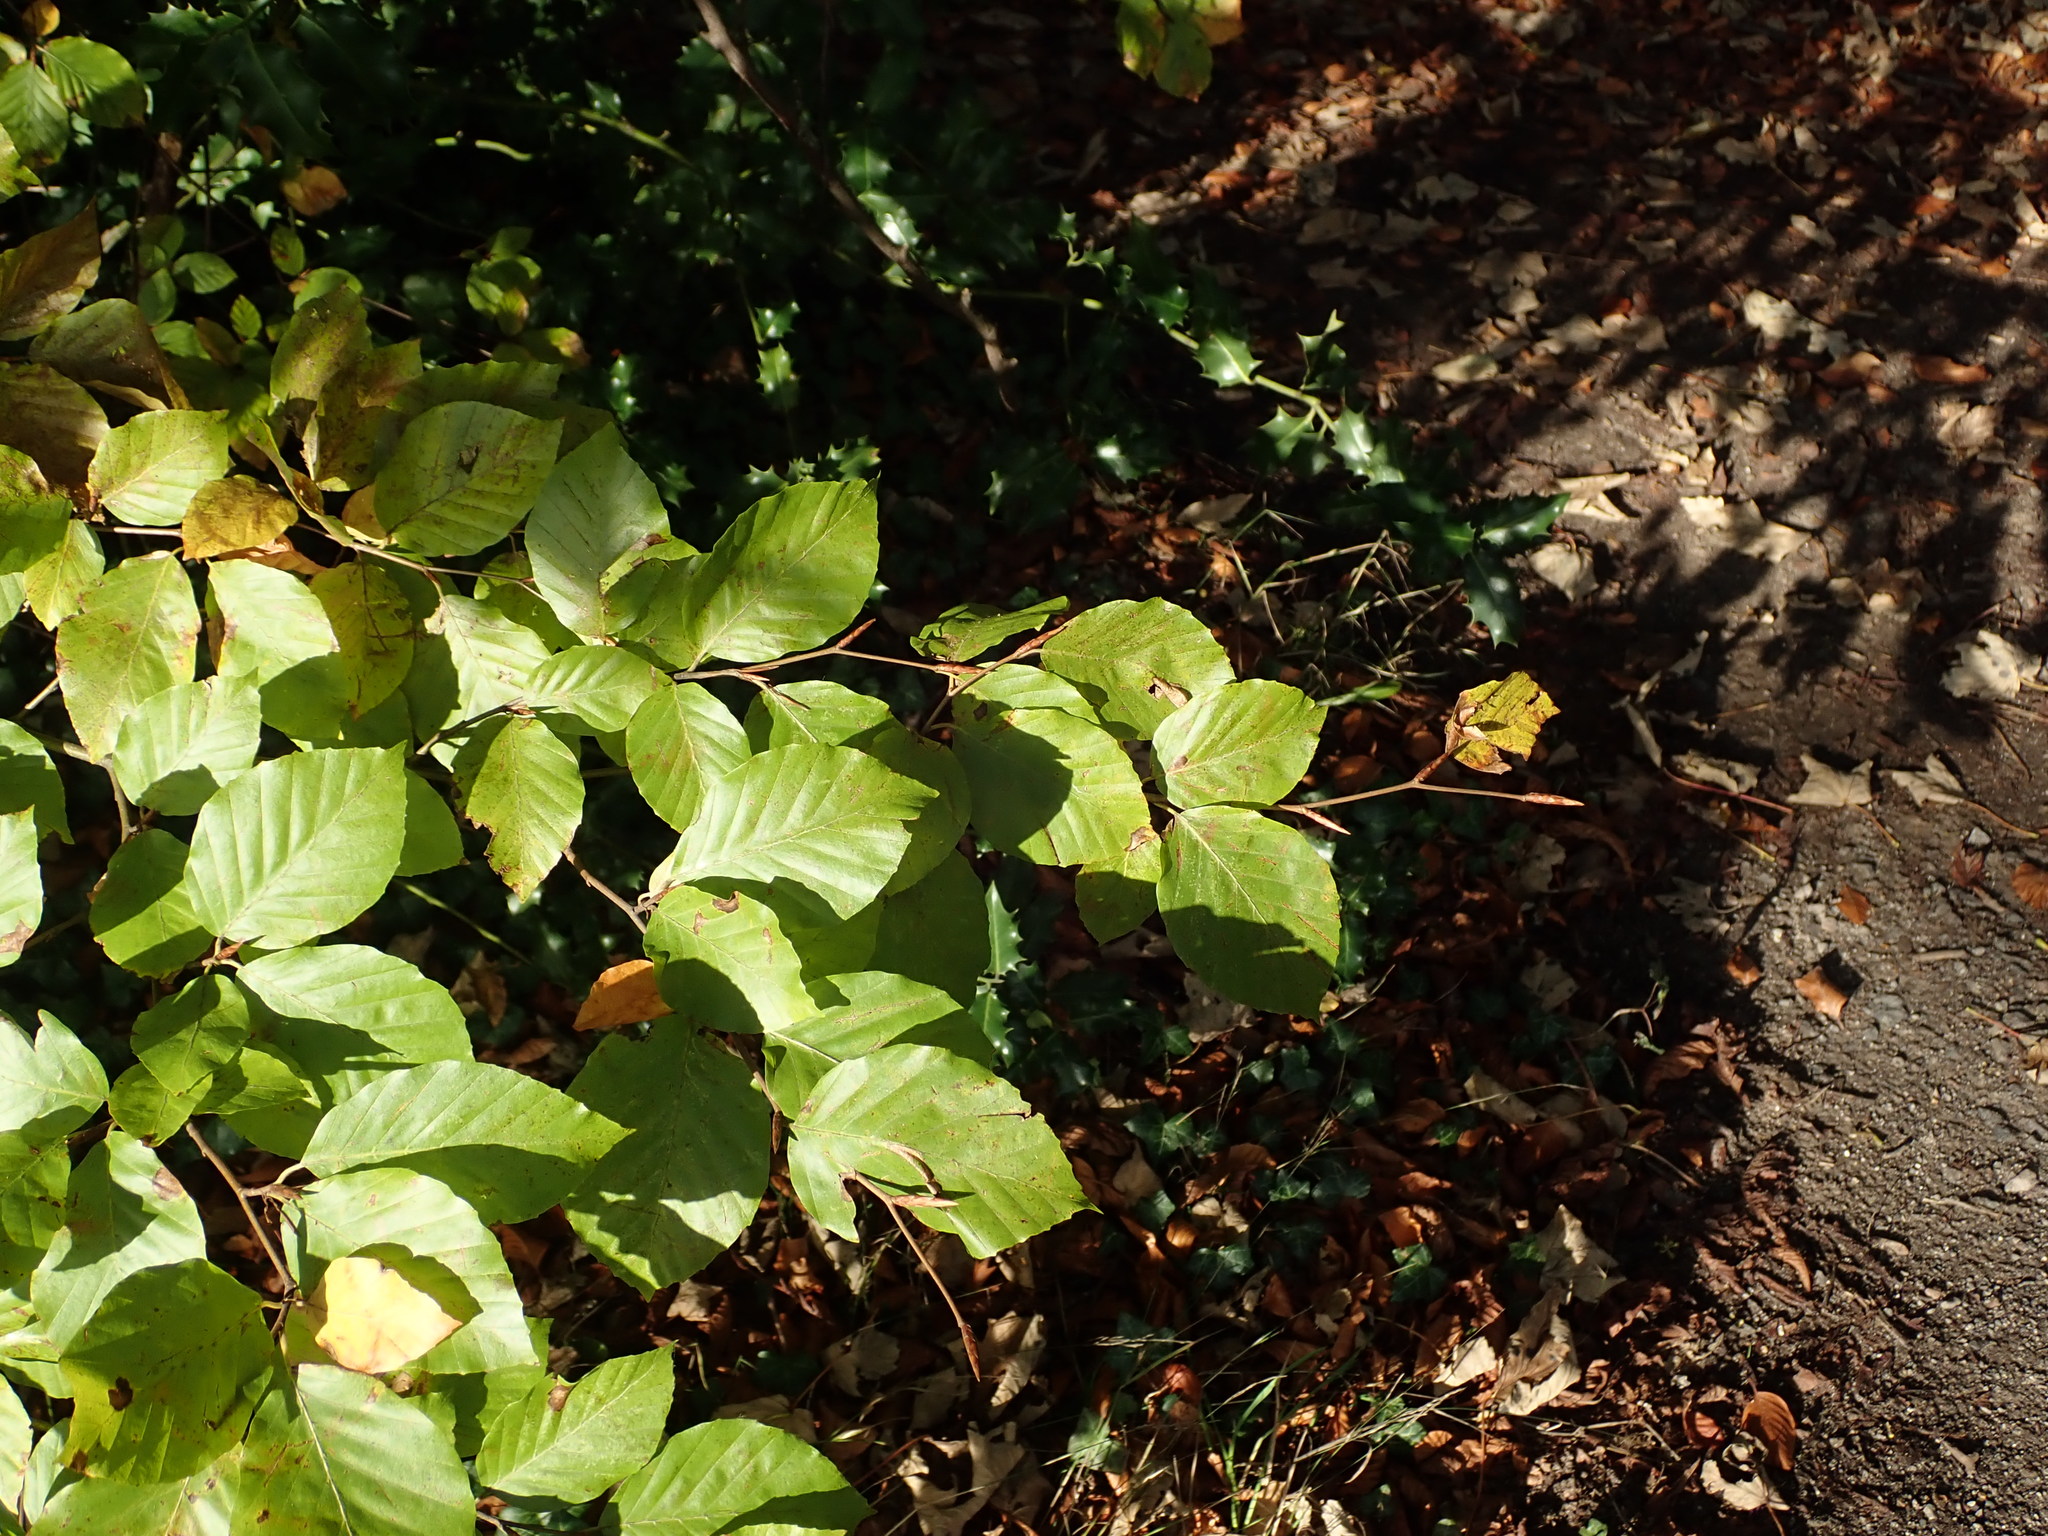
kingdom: Plantae
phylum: Tracheophyta
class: Magnoliopsida
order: Fagales
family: Fagaceae
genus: Fagus
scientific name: Fagus sylvatica
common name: Beech
